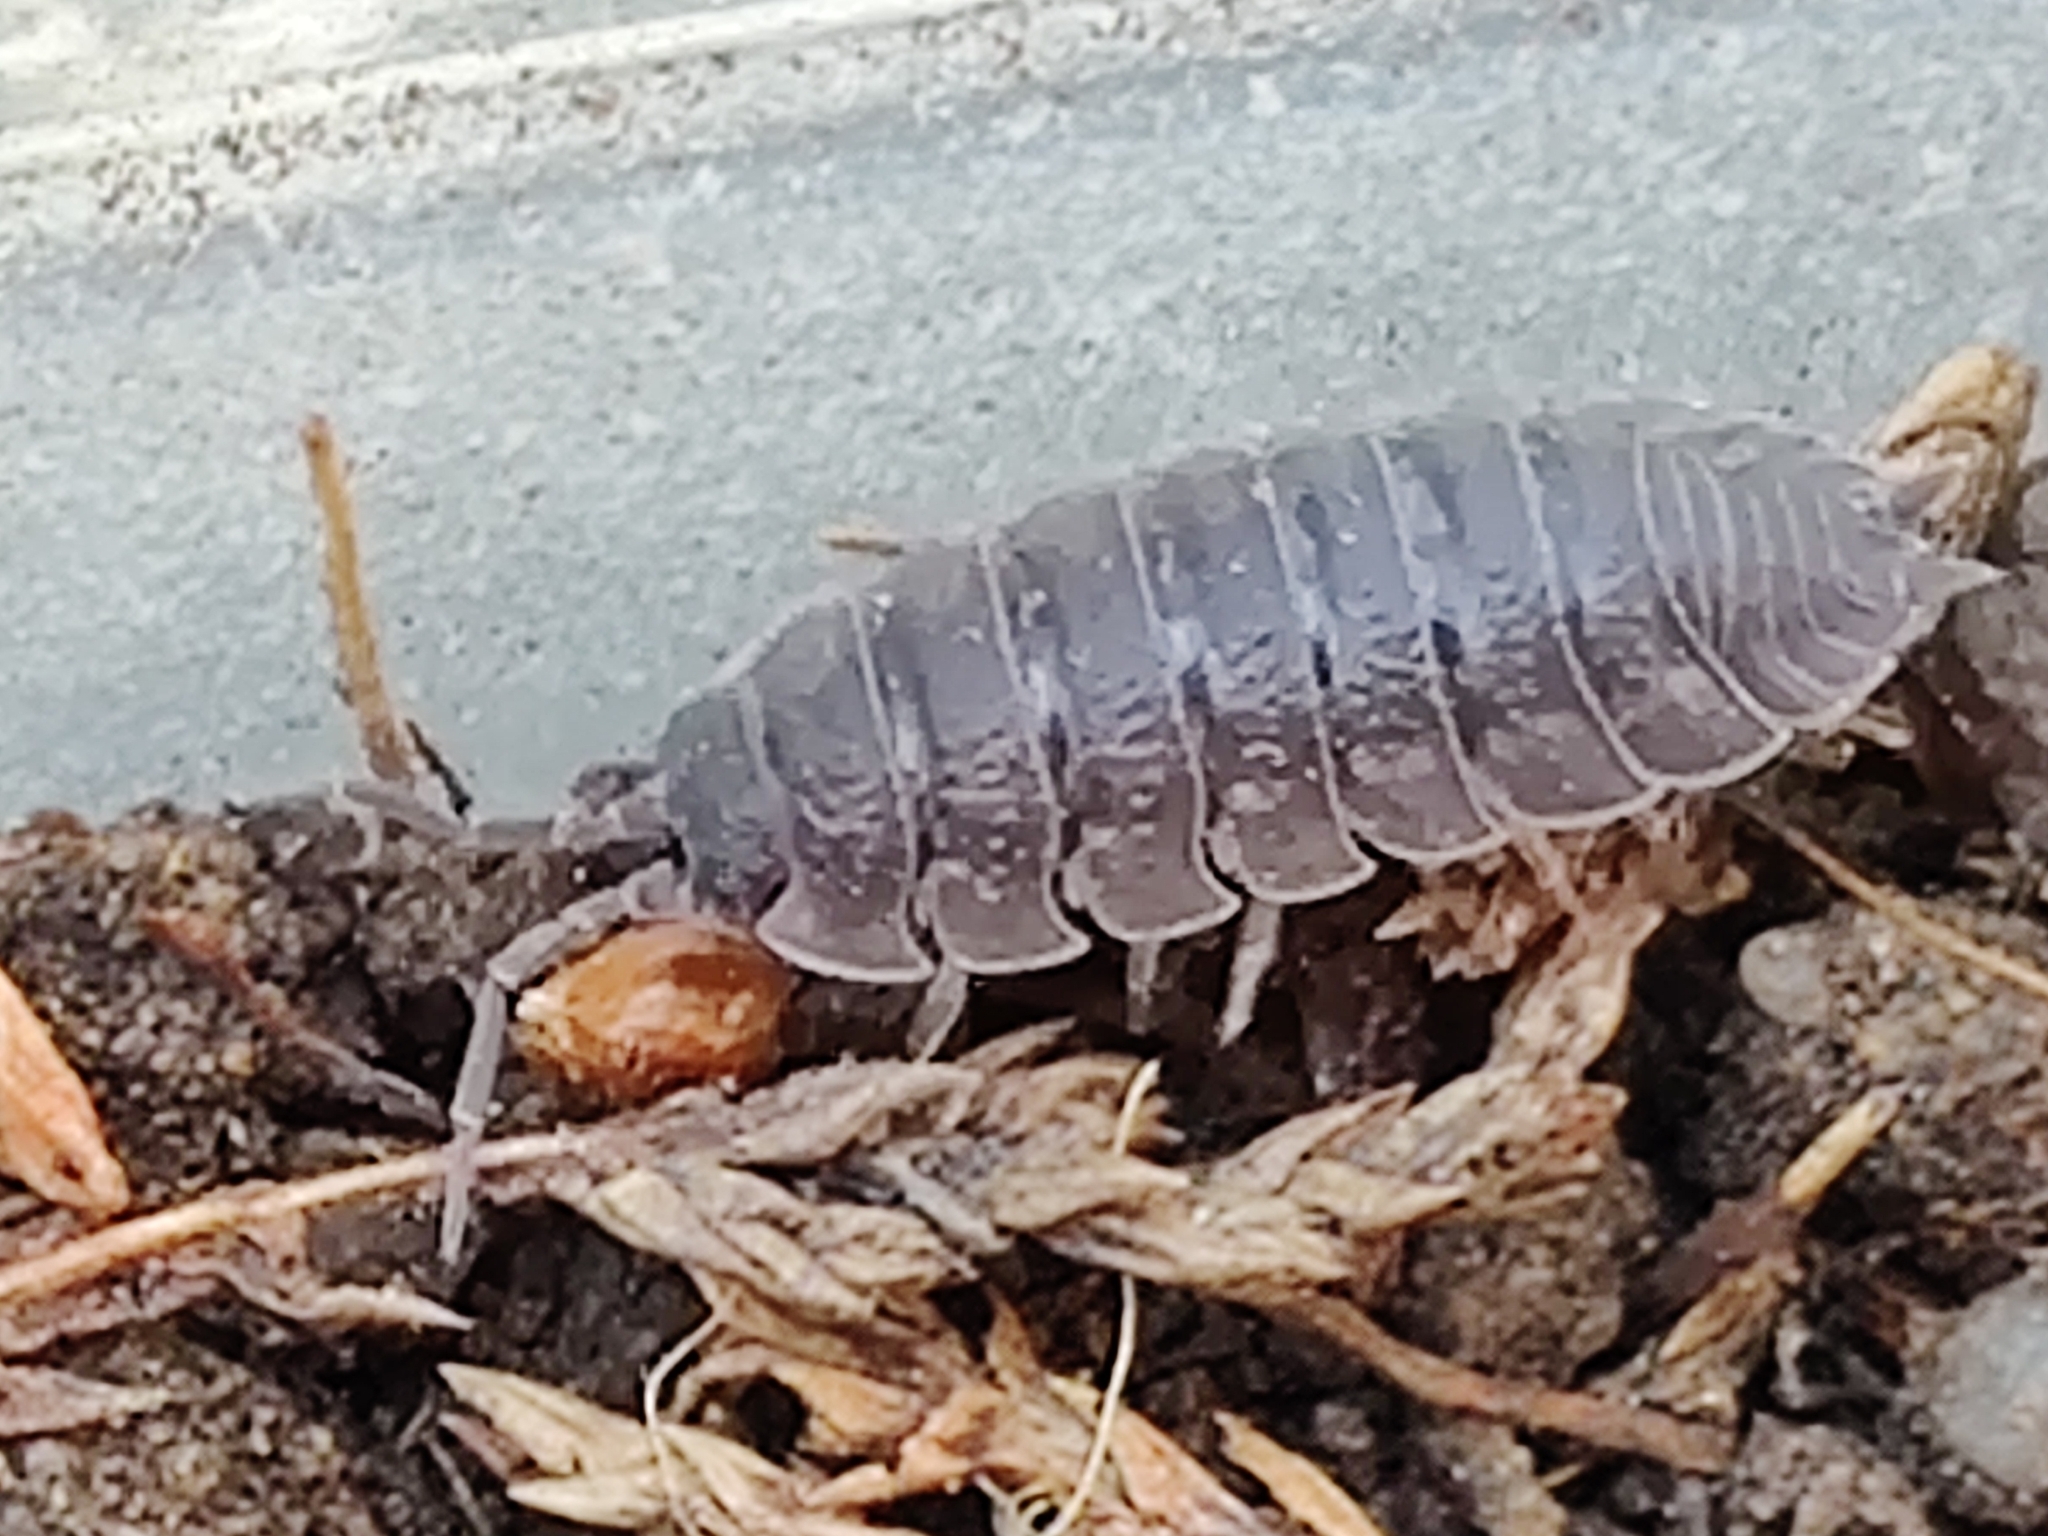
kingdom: Animalia
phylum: Arthropoda
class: Malacostraca
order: Isopoda
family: Porcellionidae
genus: Porcellio
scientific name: Porcellio scaber
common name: Common rough woodlouse
